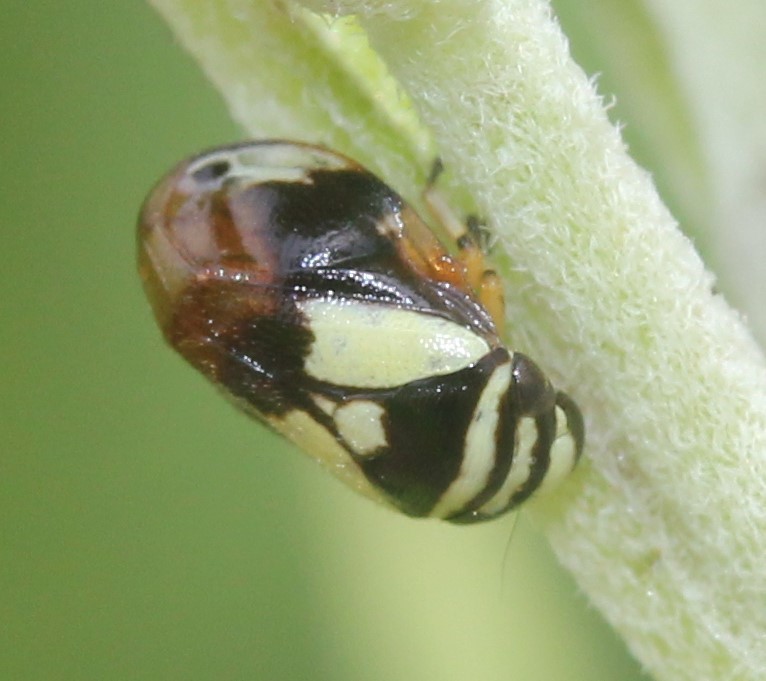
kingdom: Animalia
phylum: Arthropoda
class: Insecta
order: Hemiptera
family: Clastopteridae
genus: Clastoptera
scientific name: Clastoptera proteus
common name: Dogwood spittlebug
